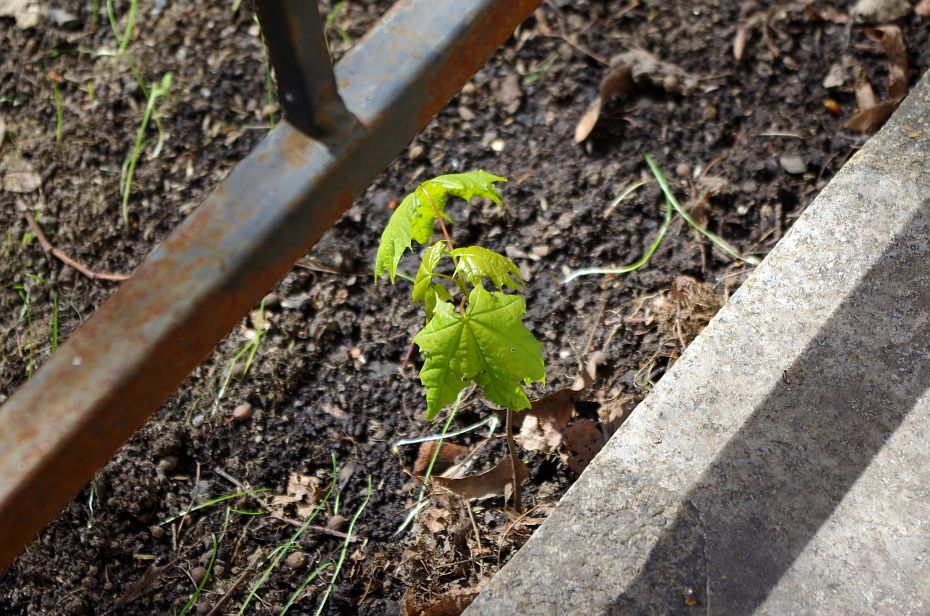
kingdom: Plantae
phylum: Tracheophyta
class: Magnoliopsida
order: Sapindales
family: Sapindaceae
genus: Acer
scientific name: Acer platanoides
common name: Norway maple
